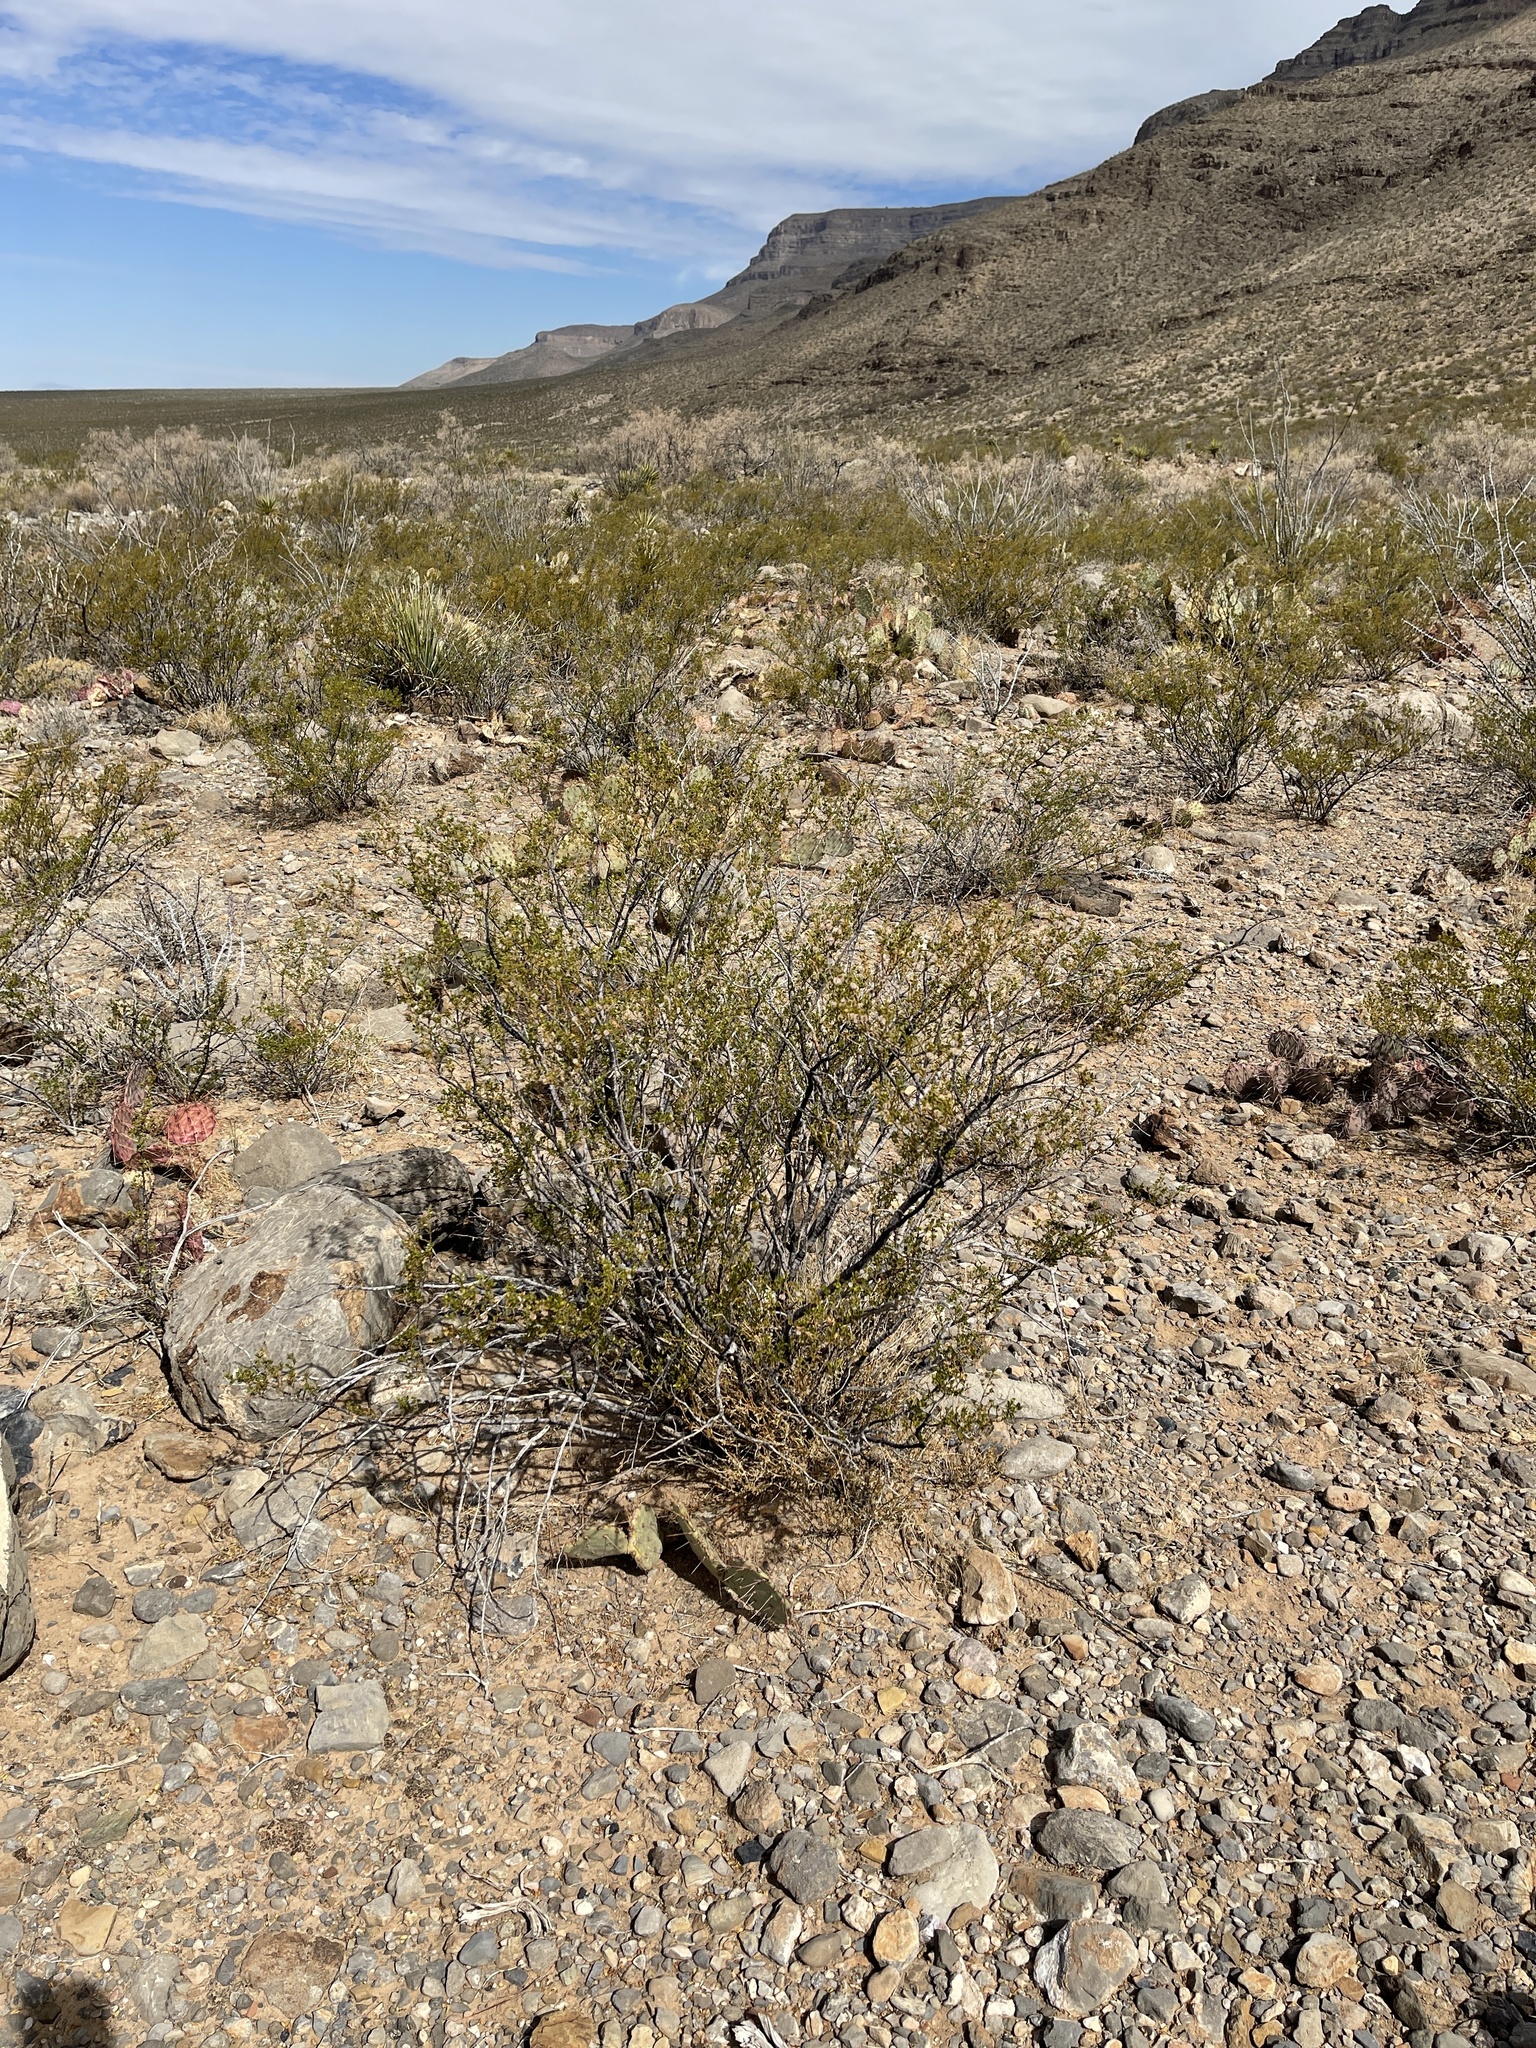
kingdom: Plantae
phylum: Tracheophyta
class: Magnoliopsida
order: Zygophyllales
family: Zygophyllaceae
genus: Larrea
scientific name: Larrea tridentata
